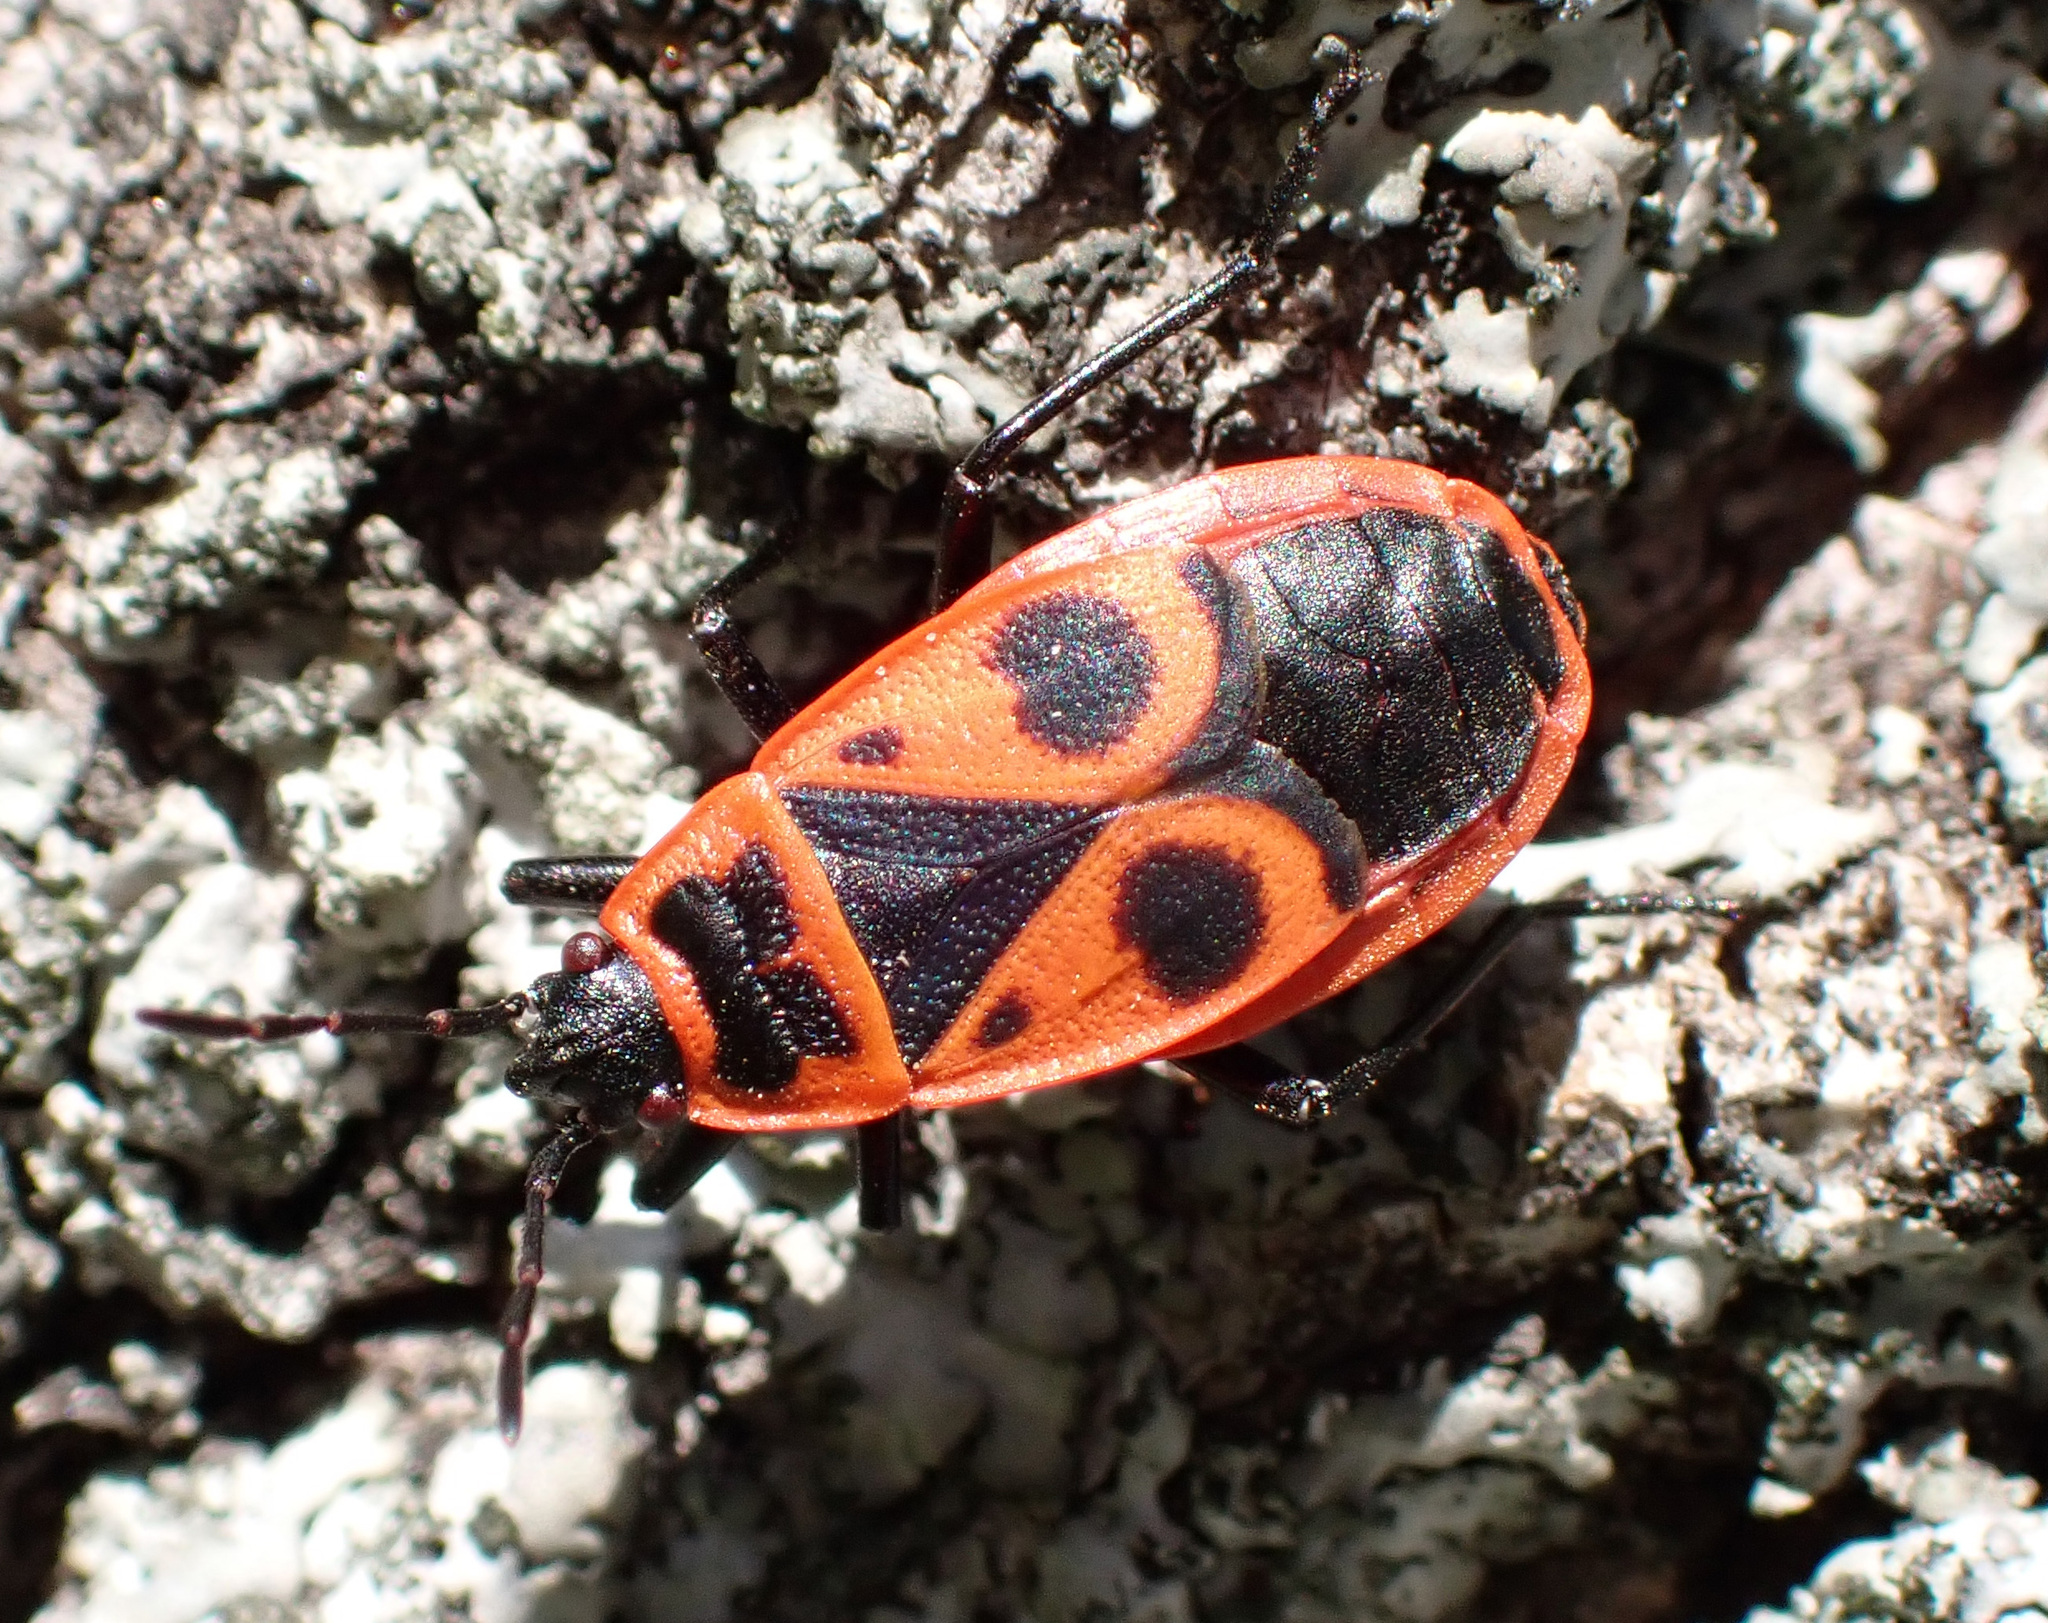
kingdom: Animalia
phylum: Arthropoda
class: Insecta
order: Hemiptera
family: Pyrrhocoridae
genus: Pyrrhocoris
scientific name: Pyrrhocoris apterus
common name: Firebug
